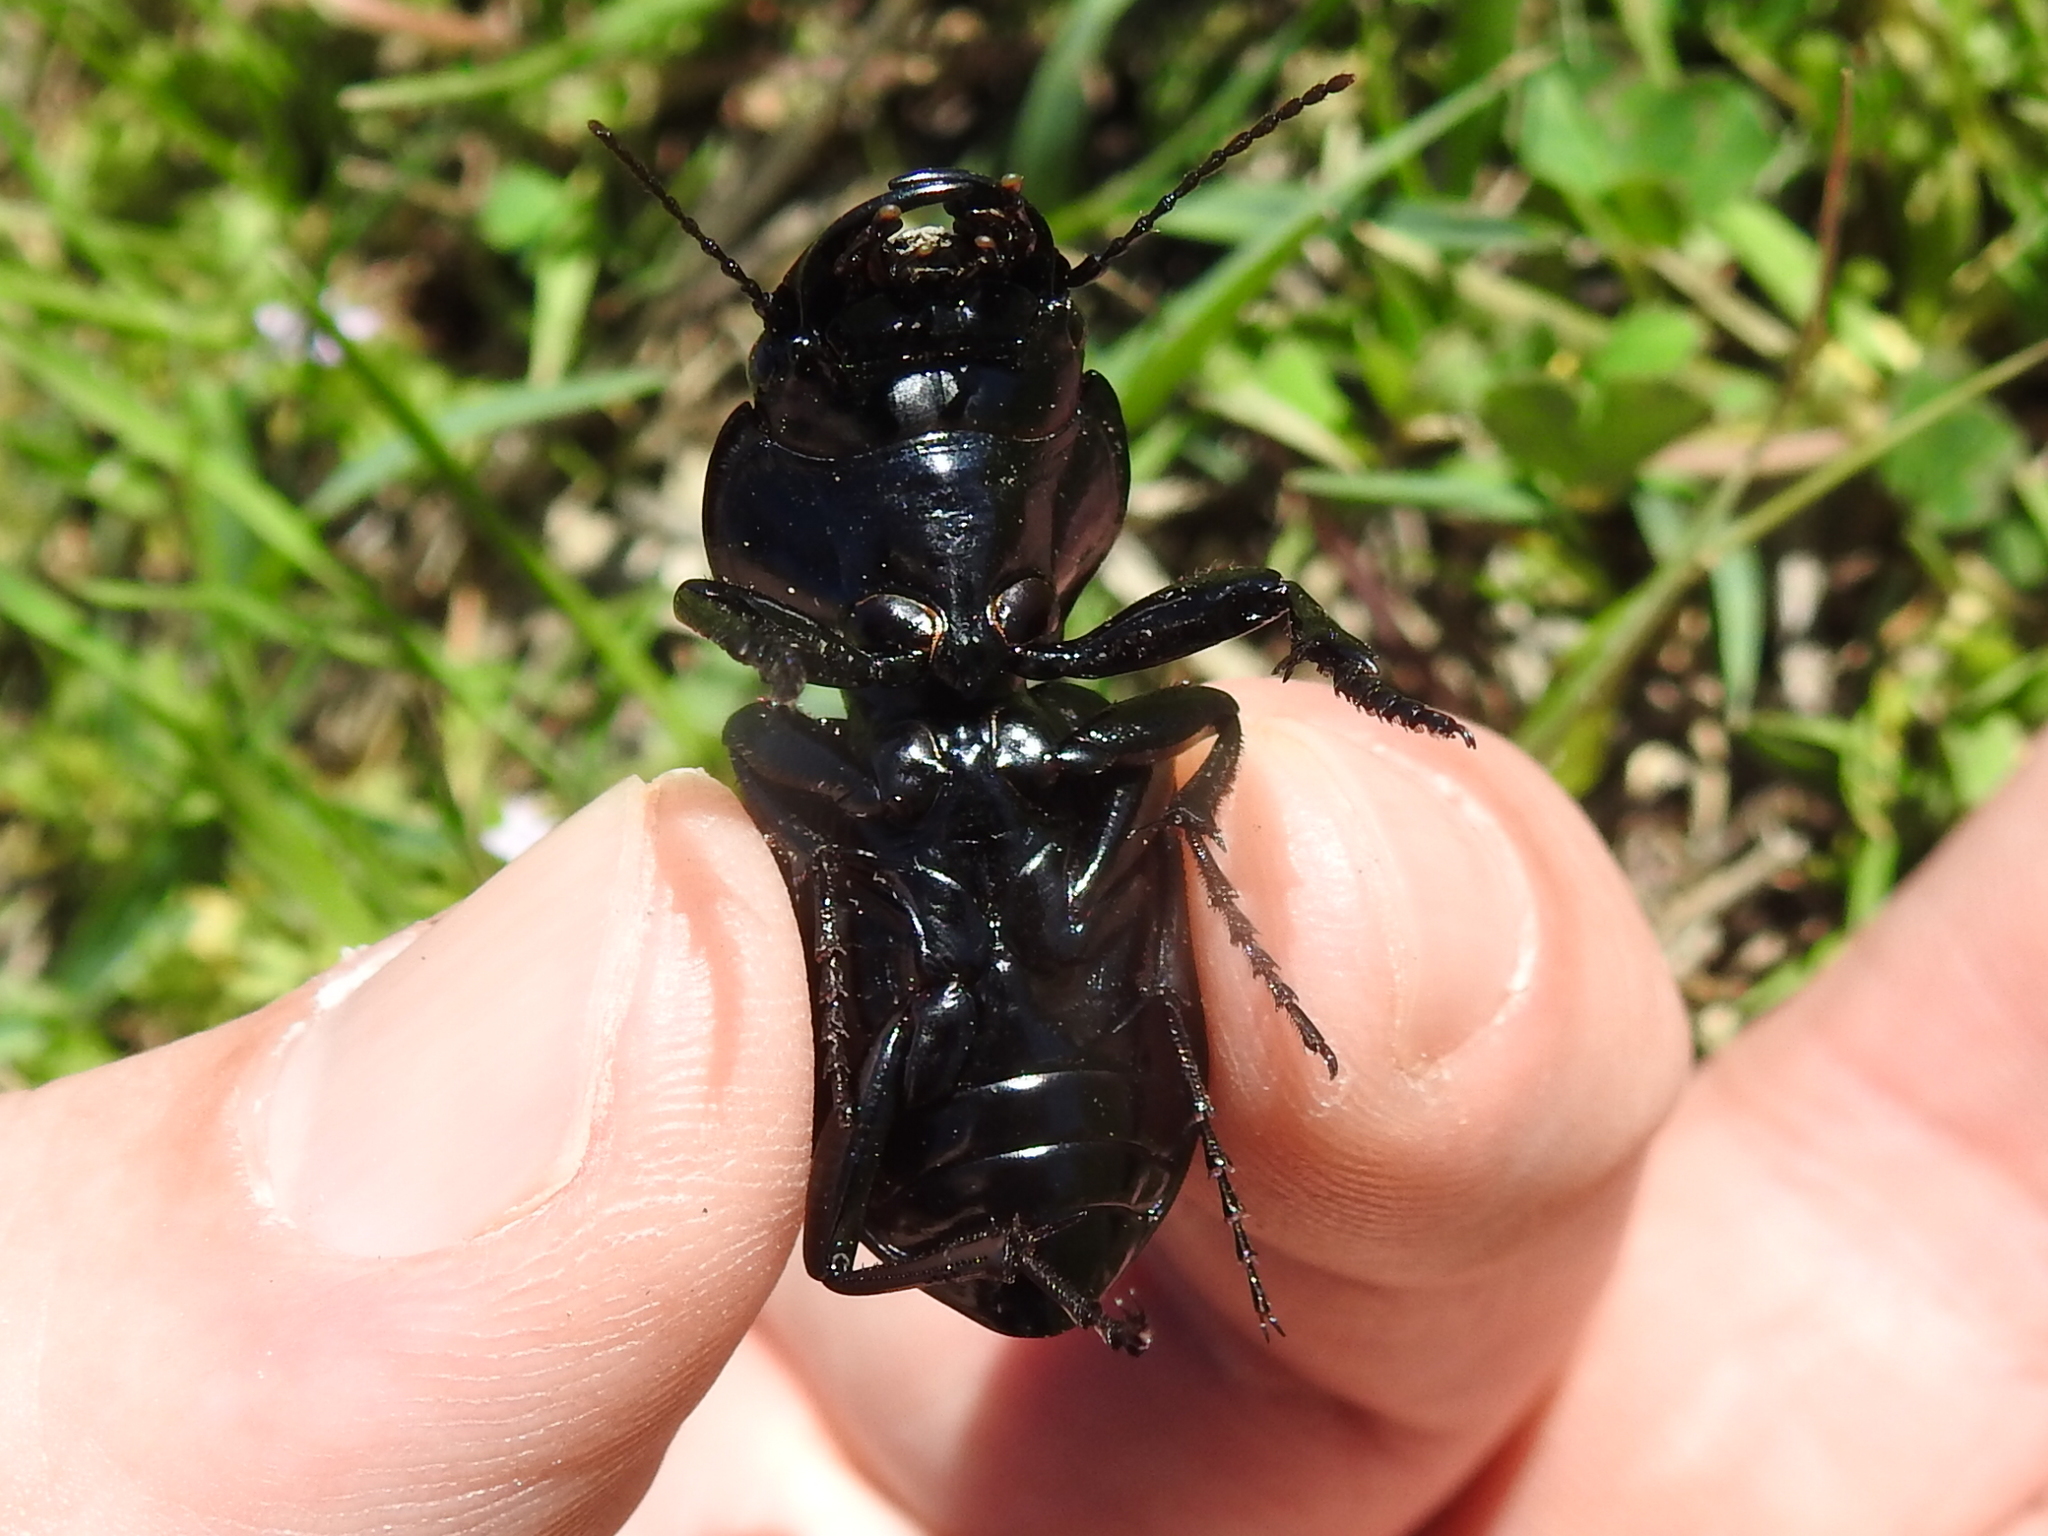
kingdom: Animalia
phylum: Arthropoda
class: Insecta
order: Coleoptera
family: Carabidae
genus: Pasimachus
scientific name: Pasimachus elongatus
